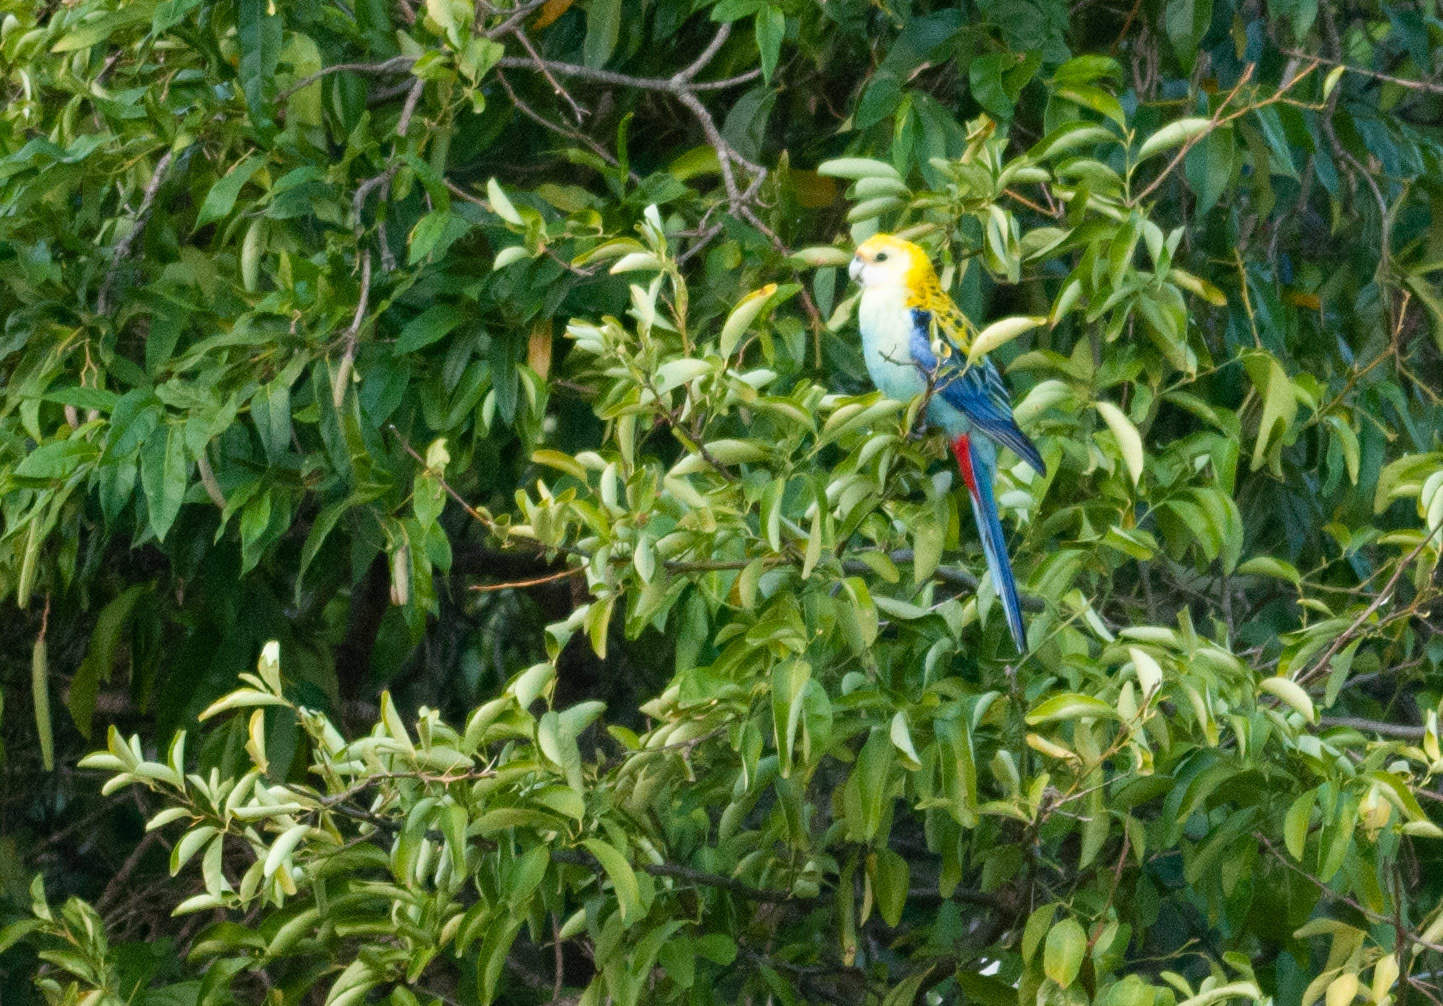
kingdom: Animalia
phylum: Chordata
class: Aves
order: Psittaciformes
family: Psittacidae
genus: Platycercus
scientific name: Platycercus adscitus
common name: Pale-headed rosella
